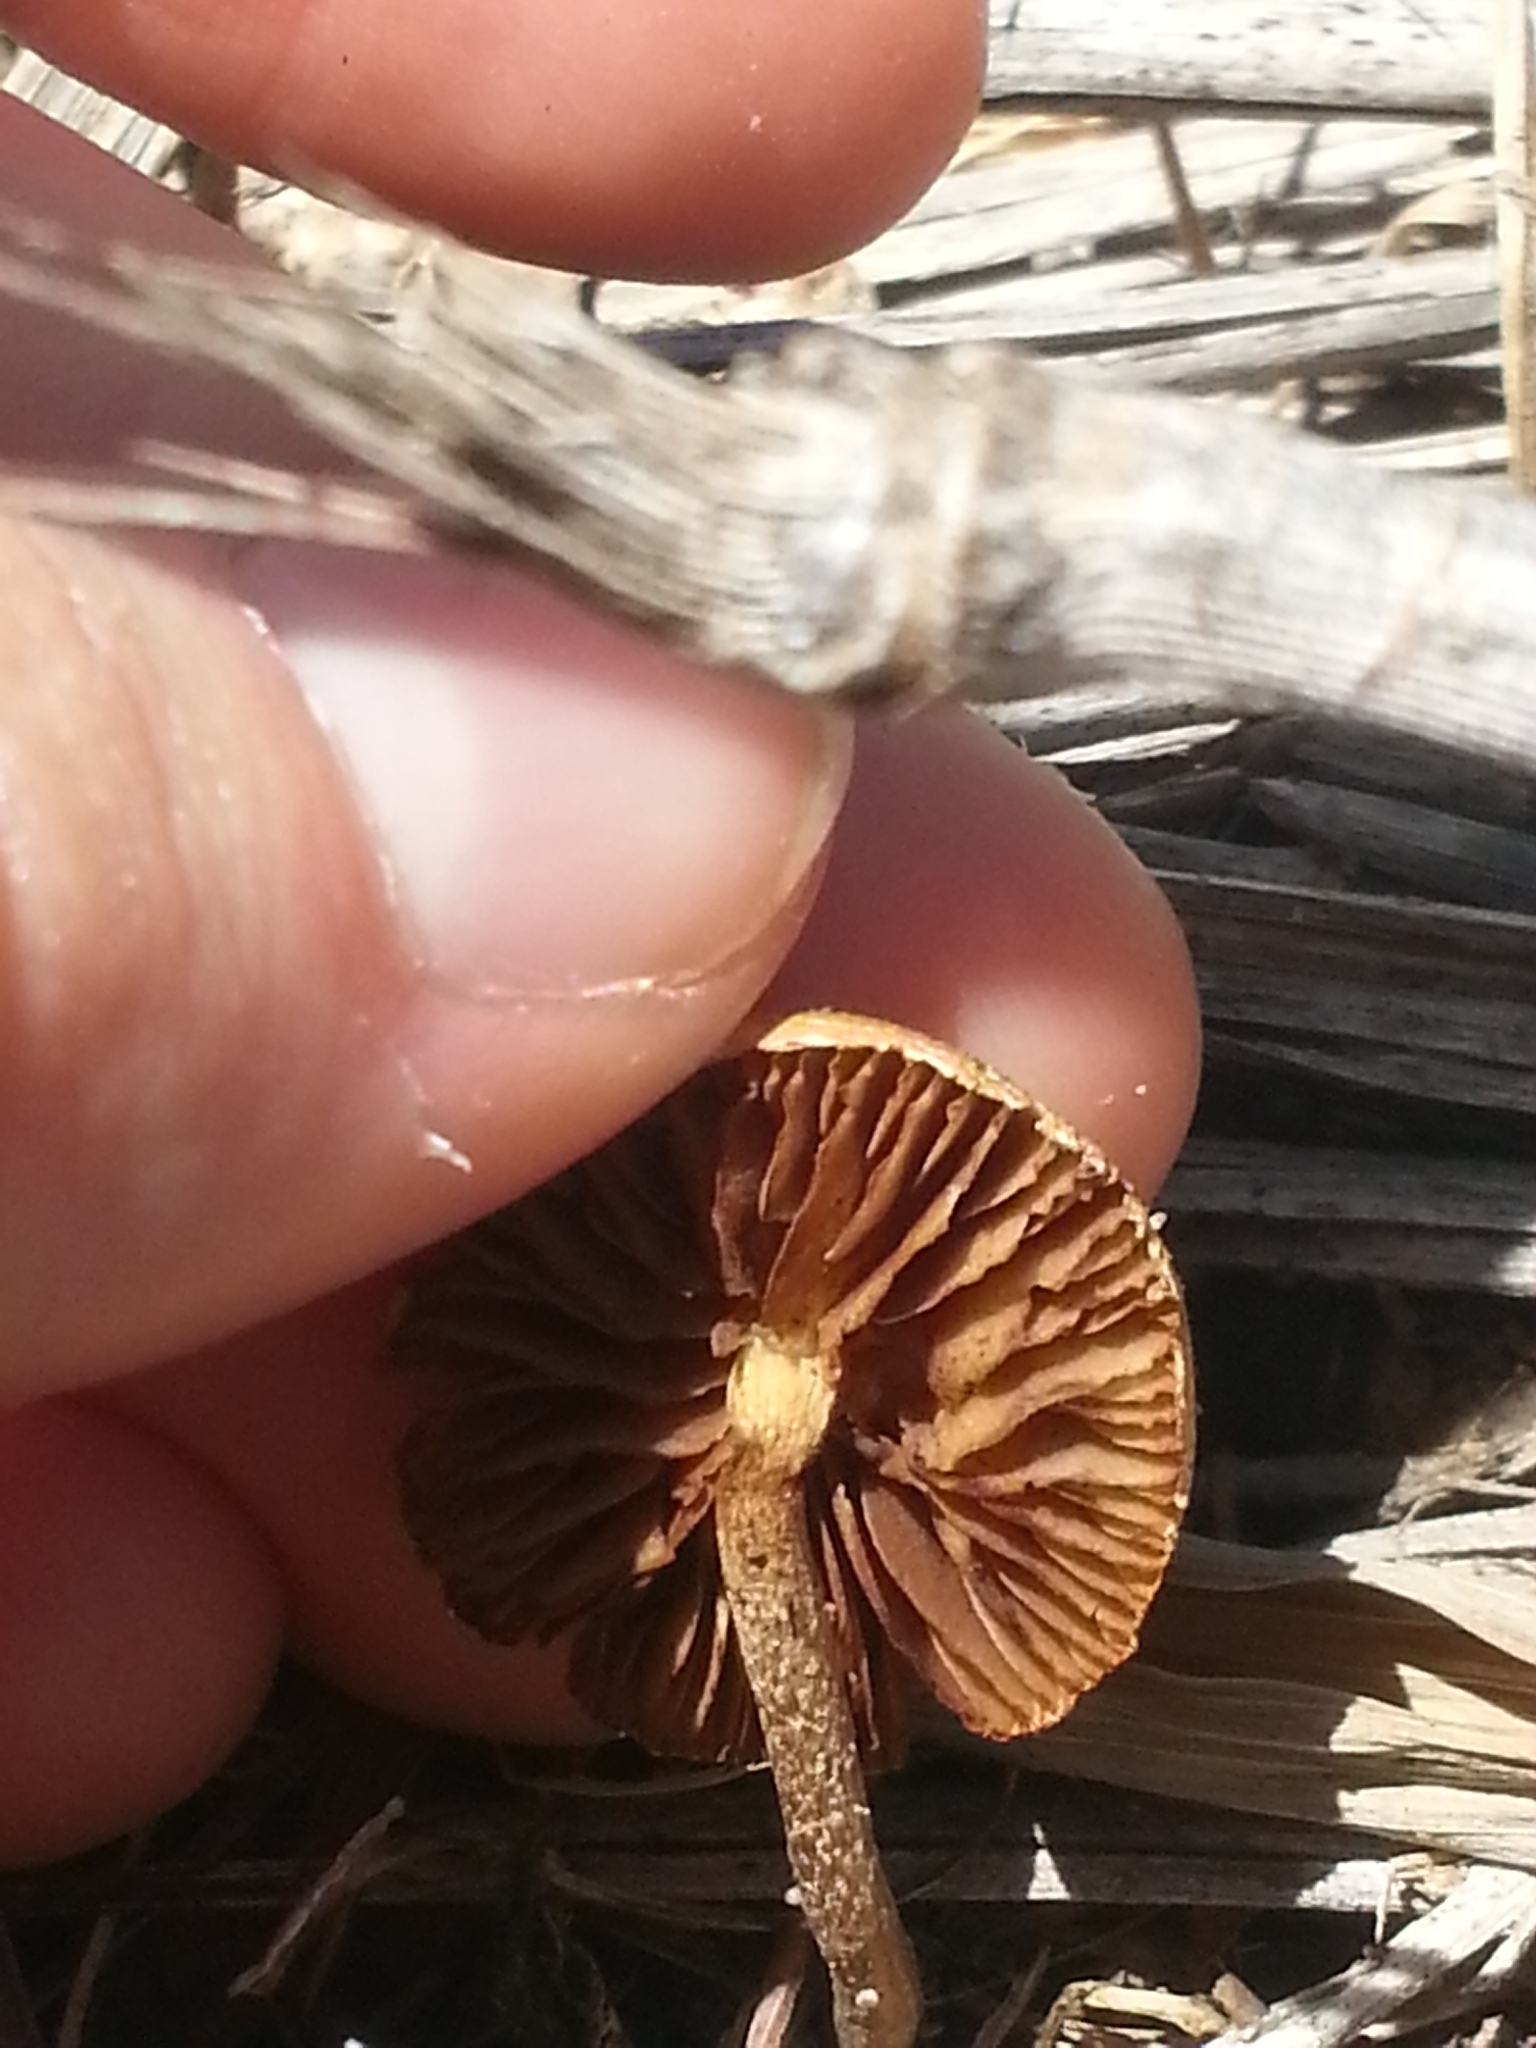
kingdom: Fungi
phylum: Basidiomycota
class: Agaricomycetes
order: Agaricales
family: Strophariaceae
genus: Agrocybe
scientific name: Agrocybe pediades
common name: Common fieldcap
